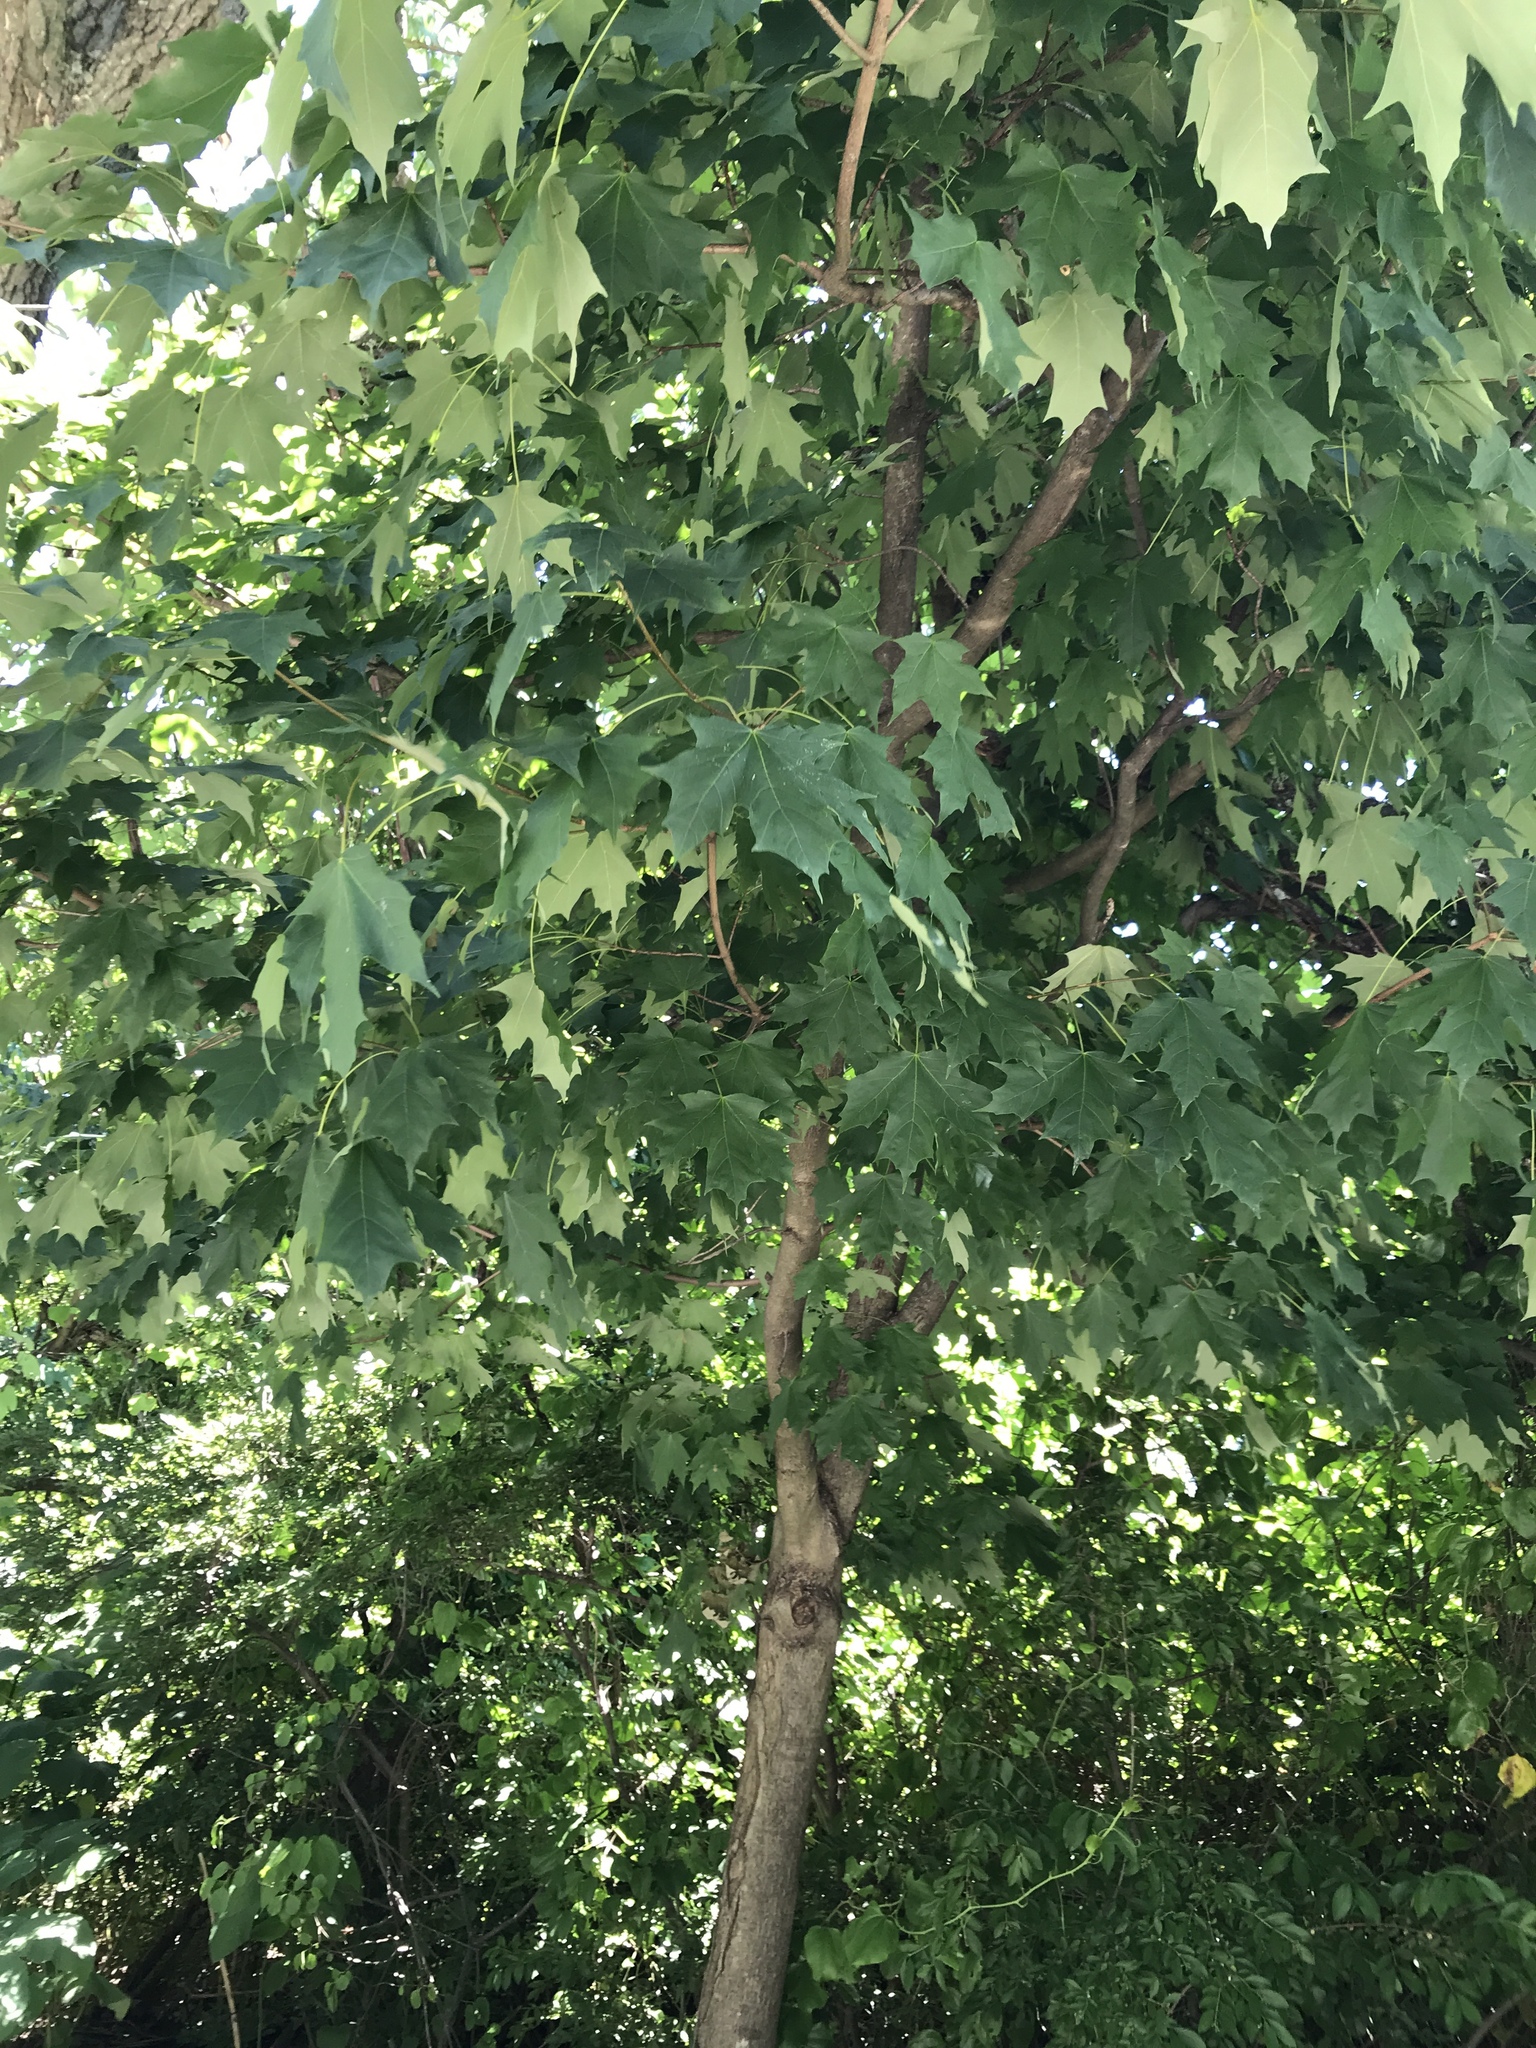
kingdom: Plantae
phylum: Tracheophyta
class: Magnoliopsida
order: Sapindales
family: Sapindaceae
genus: Acer
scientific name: Acer saccharum
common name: Sugar maple
